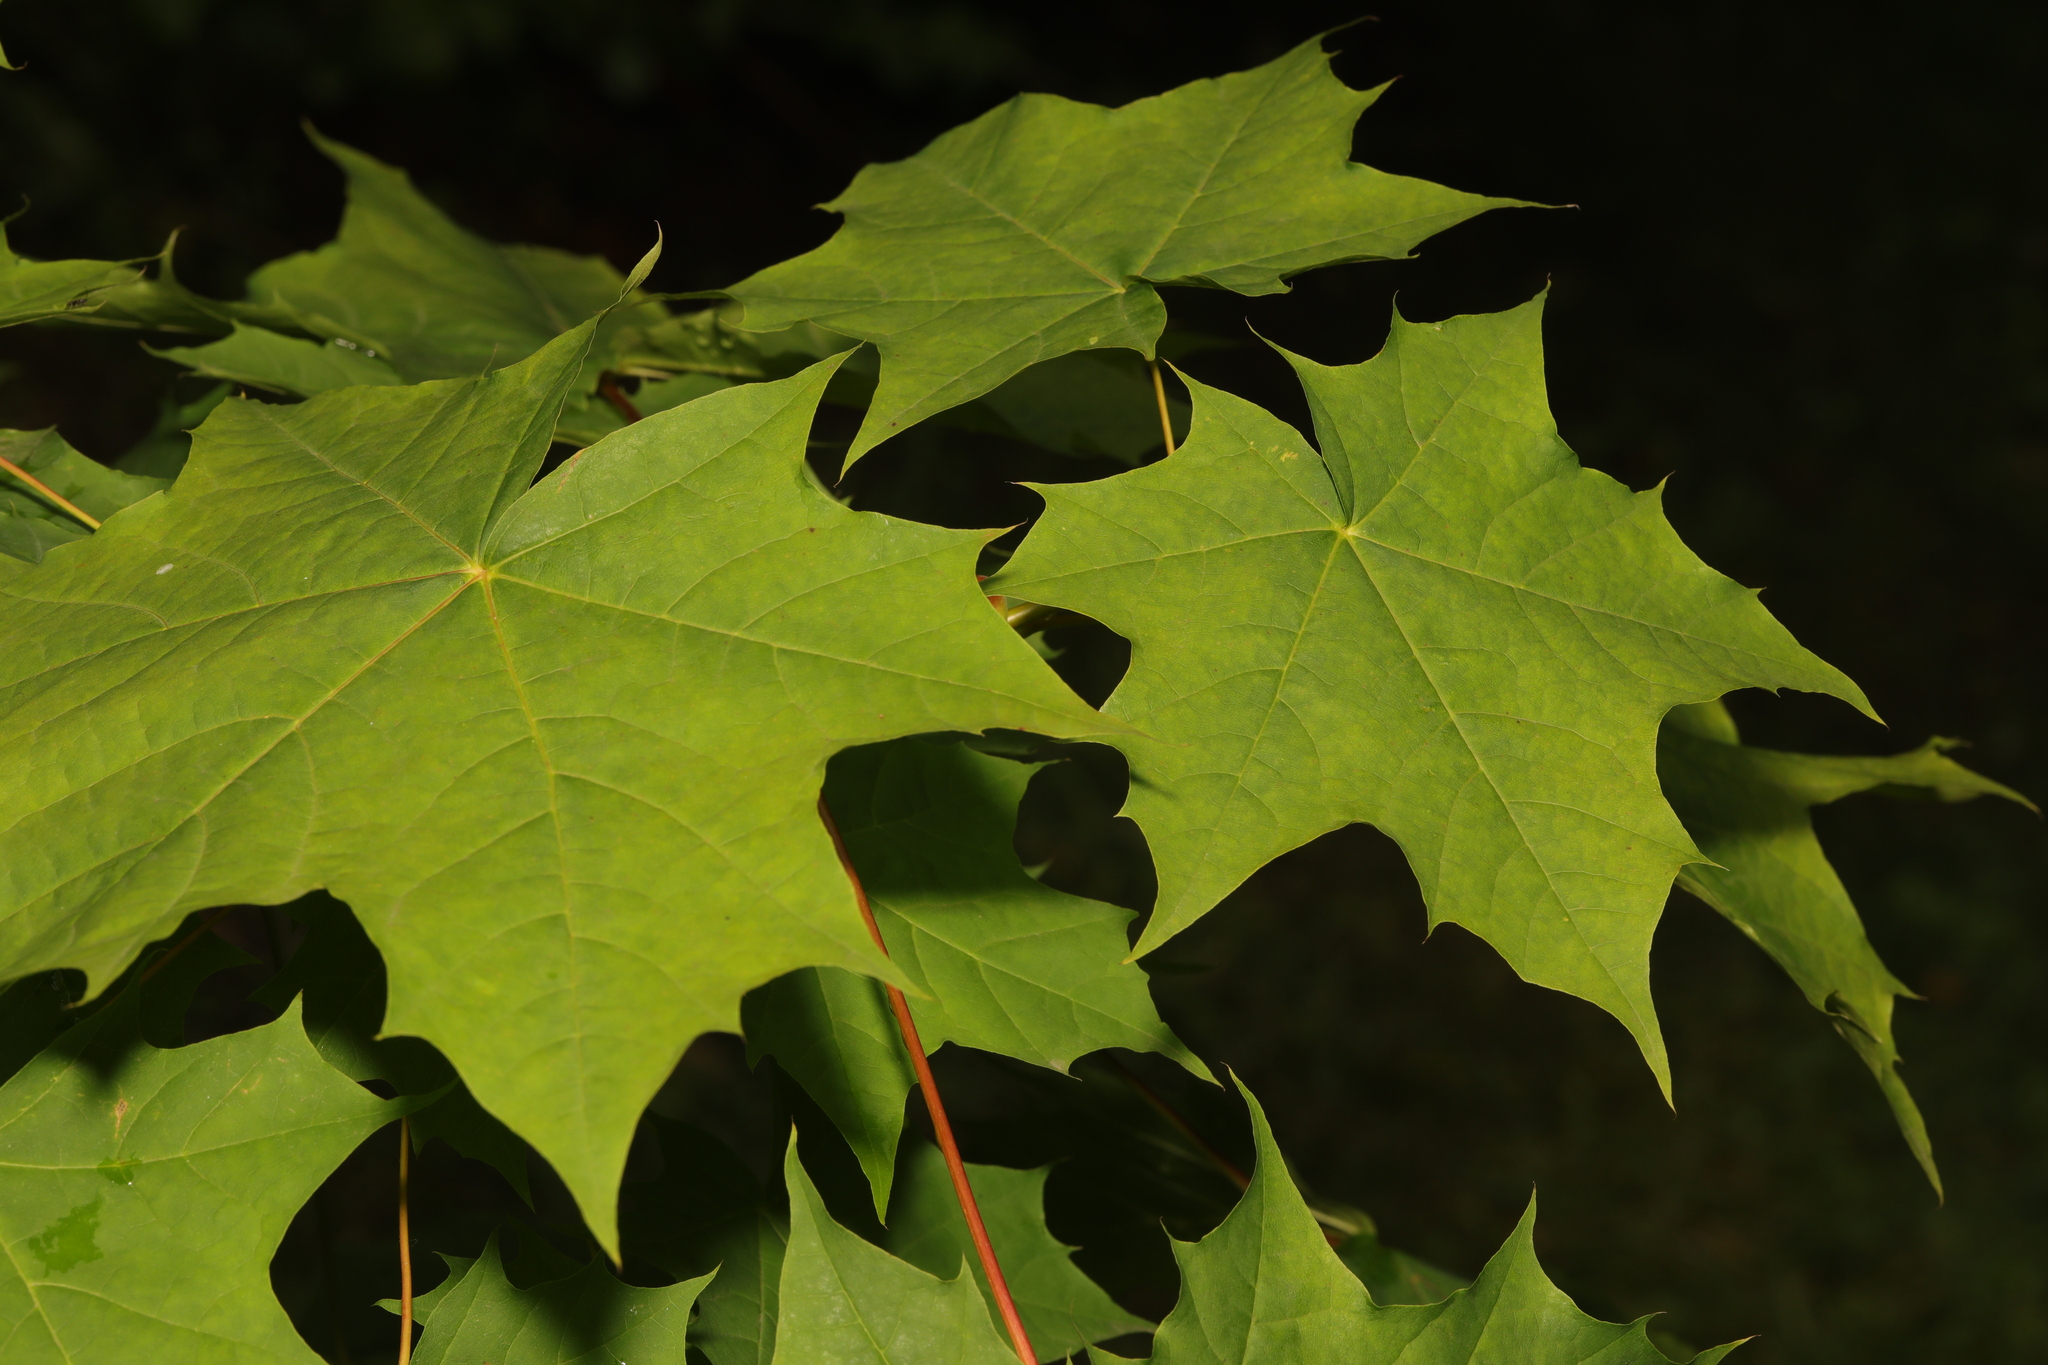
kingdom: Plantae
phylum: Tracheophyta
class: Magnoliopsida
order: Sapindales
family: Sapindaceae
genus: Acer
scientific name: Acer platanoides
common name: Norway maple
